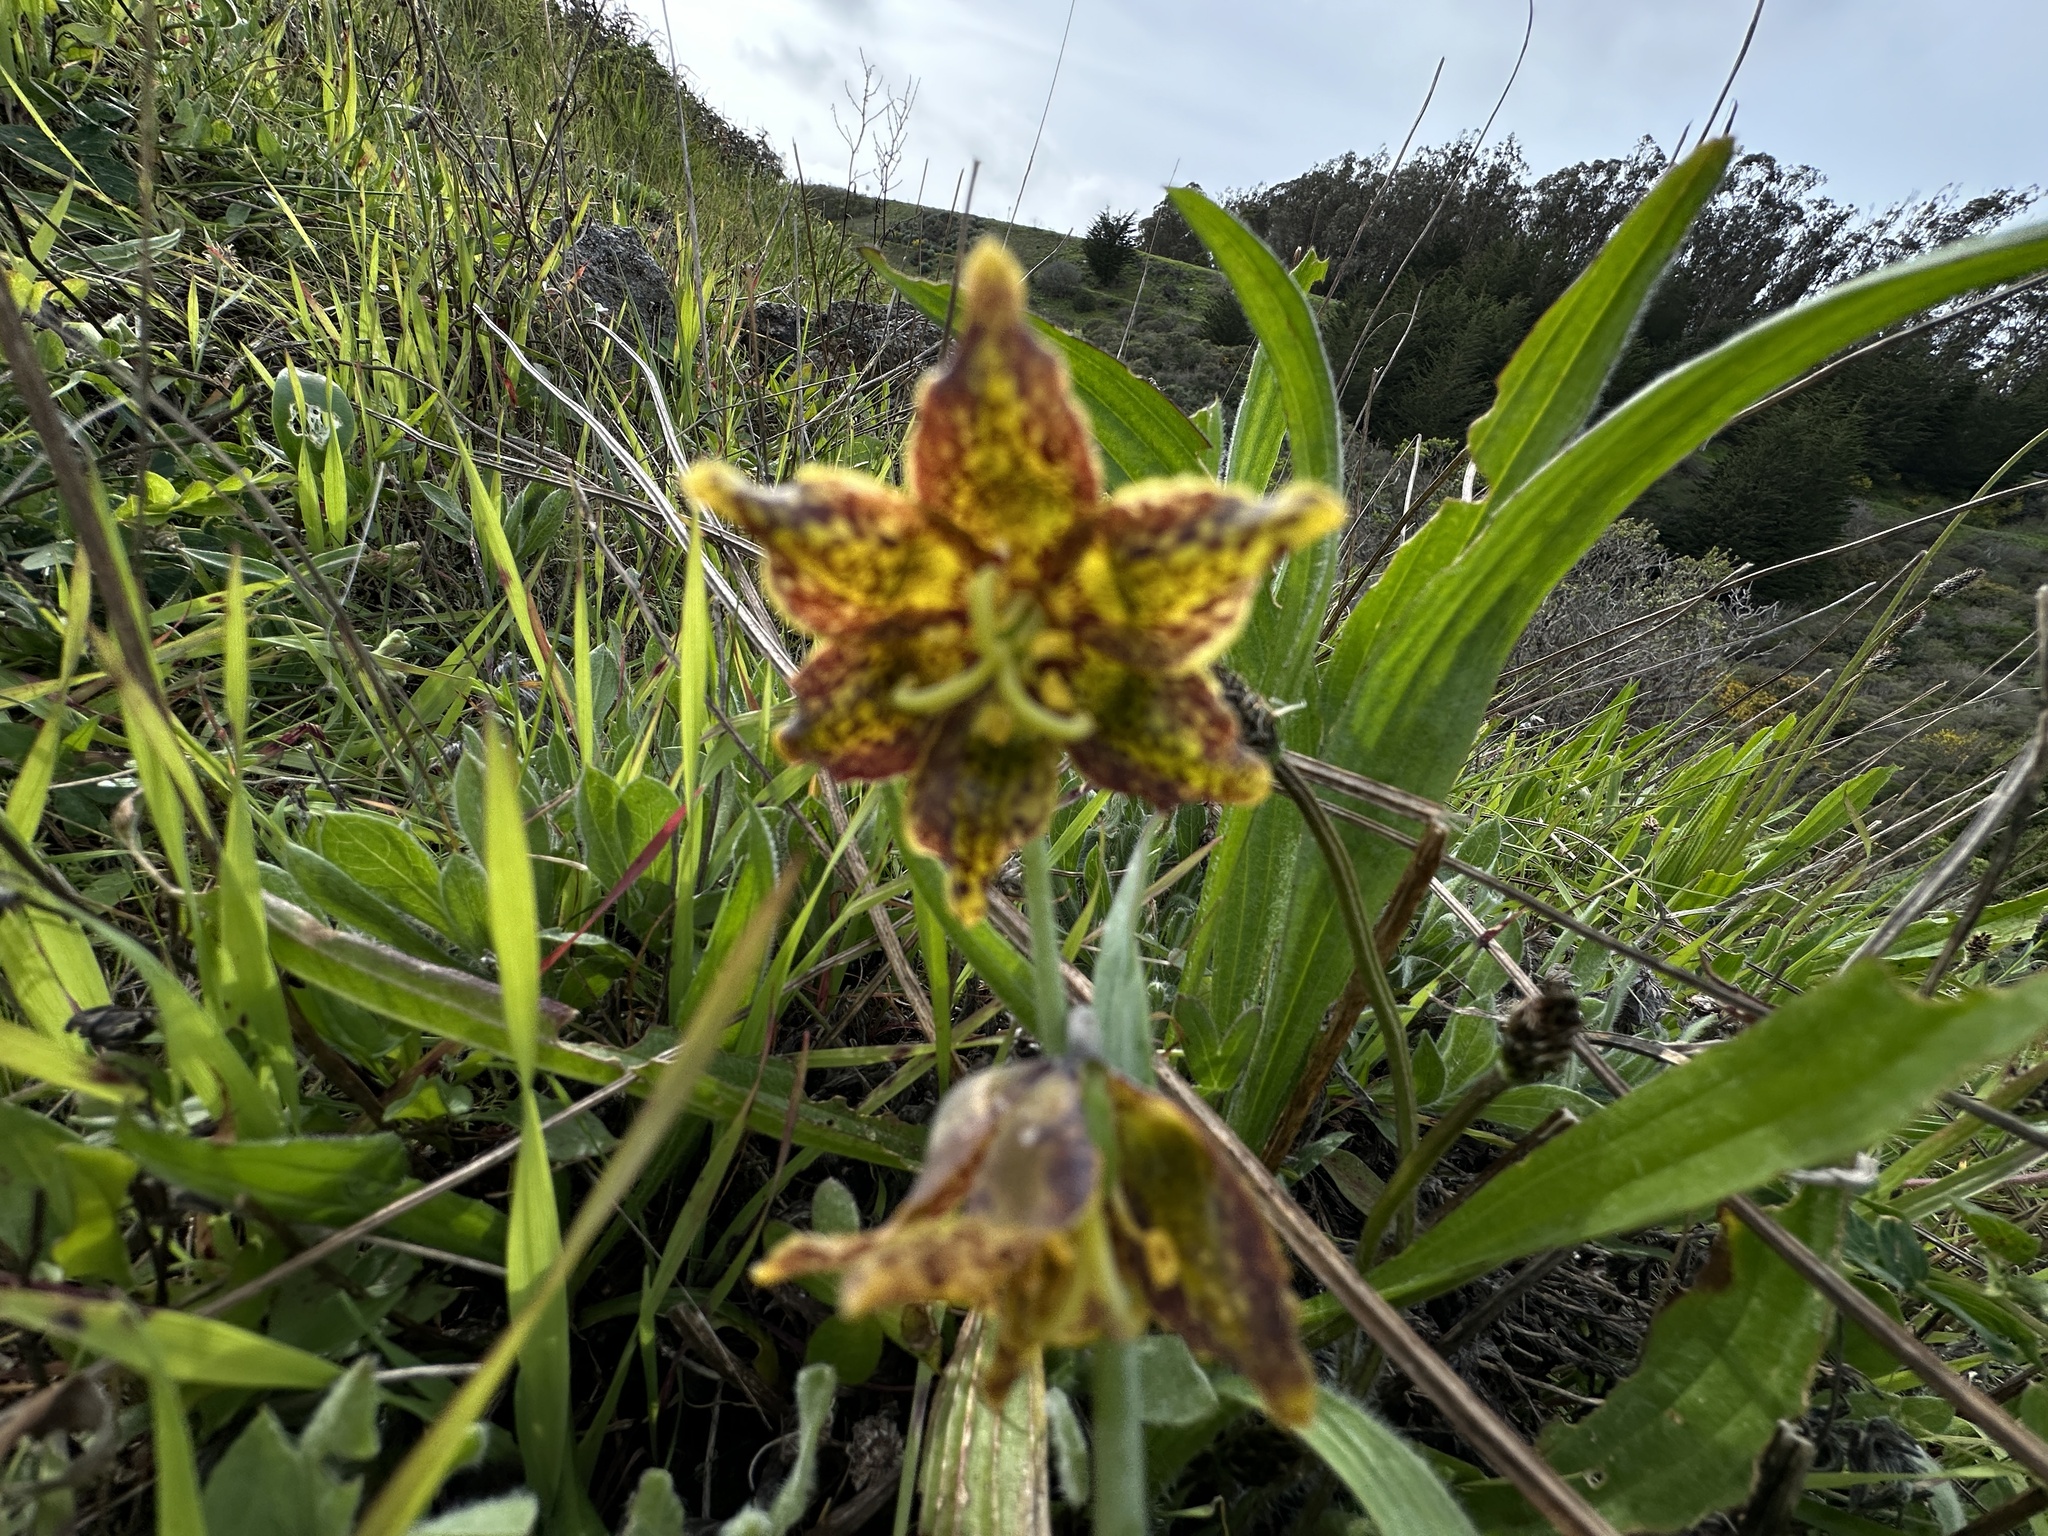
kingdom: Plantae
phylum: Tracheophyta
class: Liliopsida
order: Liliales
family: Liliaceae
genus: Fritillaria
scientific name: Fritillaria affinis
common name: Ojai fritillary
